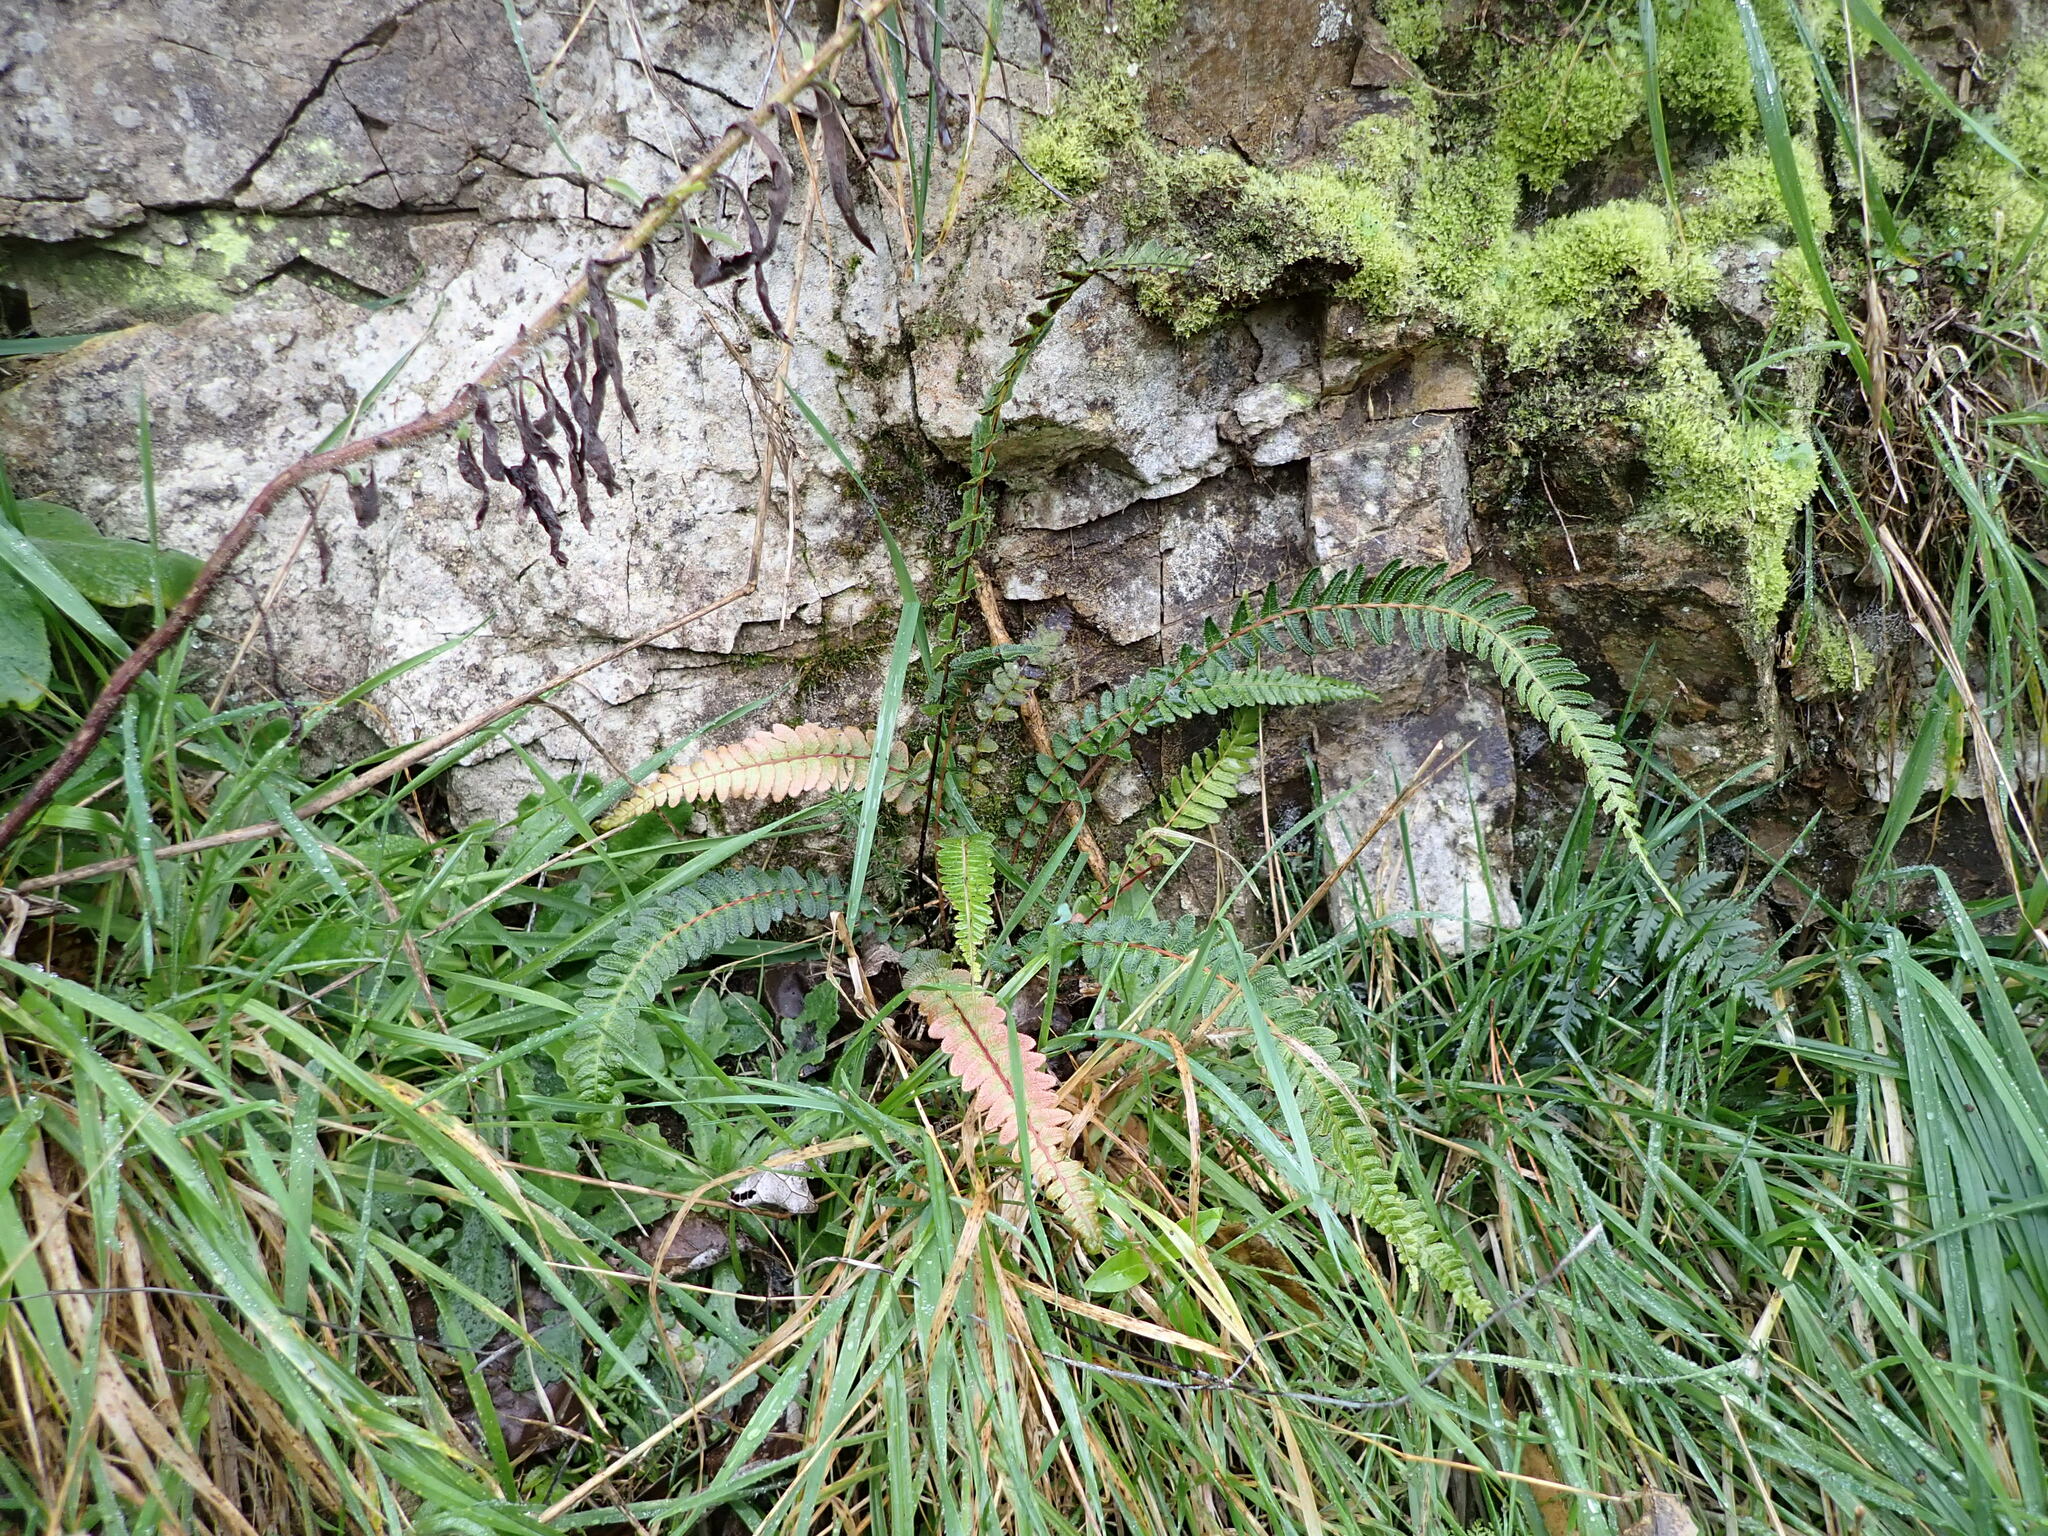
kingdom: Plantae
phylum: Tracheophyta
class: Polypodiopsida
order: Polypodiales
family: Blechnaceae
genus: Doodia
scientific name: Doodia australis
